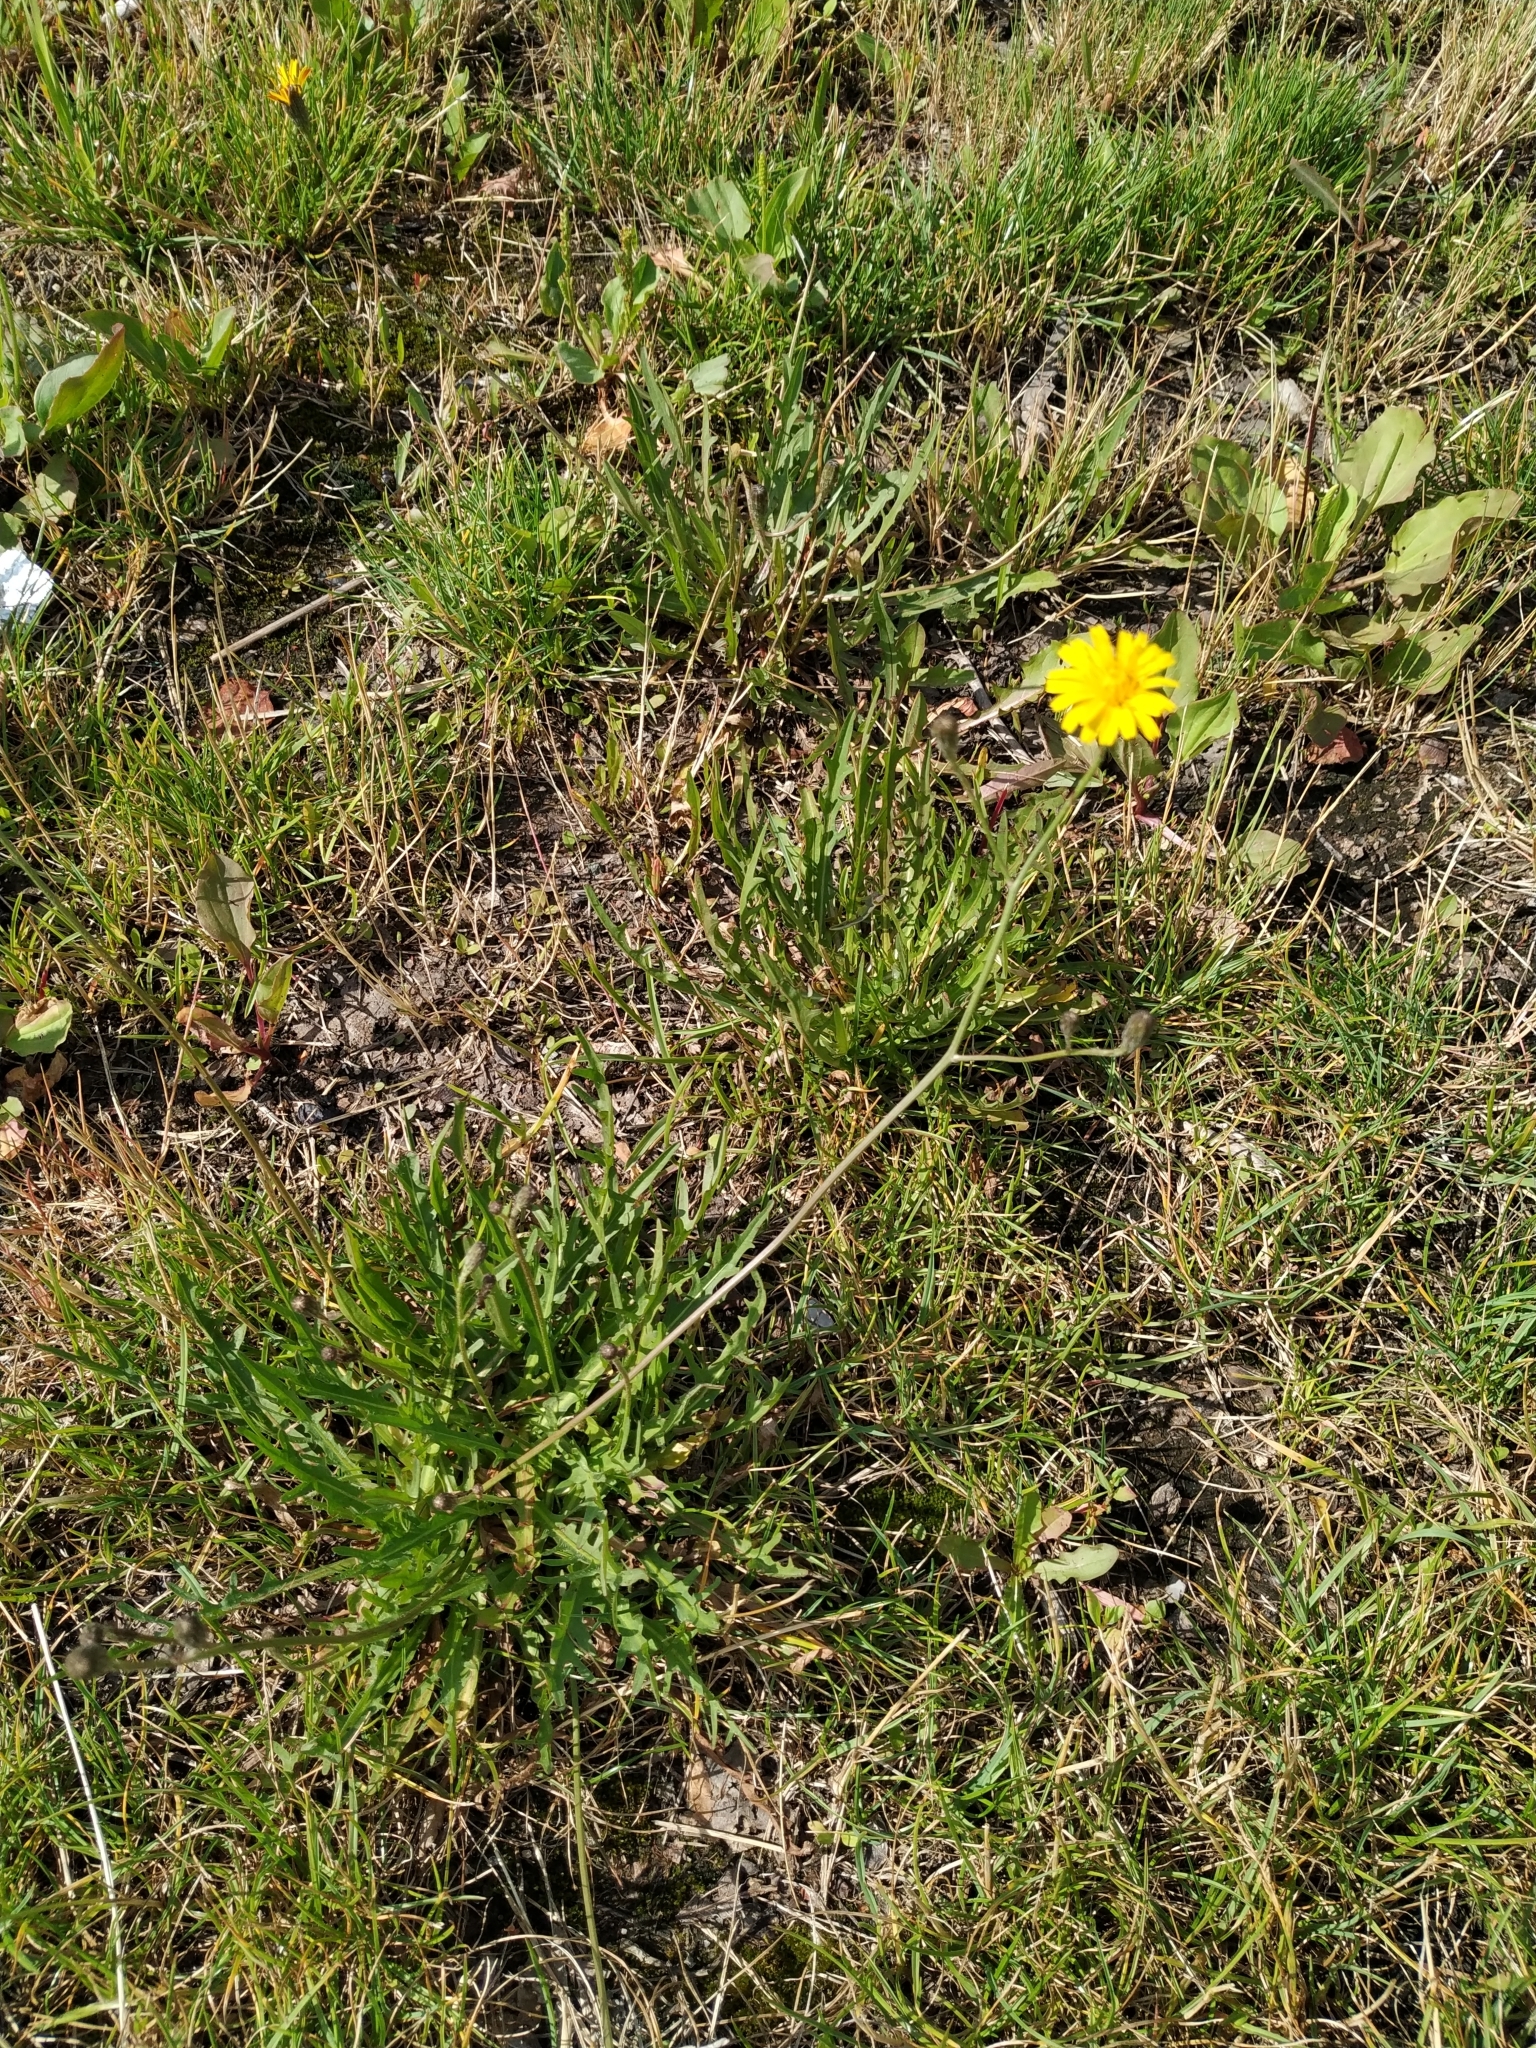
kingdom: Plantae
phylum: Tracheophyta
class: Magnoliopsida
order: Asterales
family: Asteraceae
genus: Scorzoneroides
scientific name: Scorzoneroides autumnalis
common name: Autumn hawkbit
